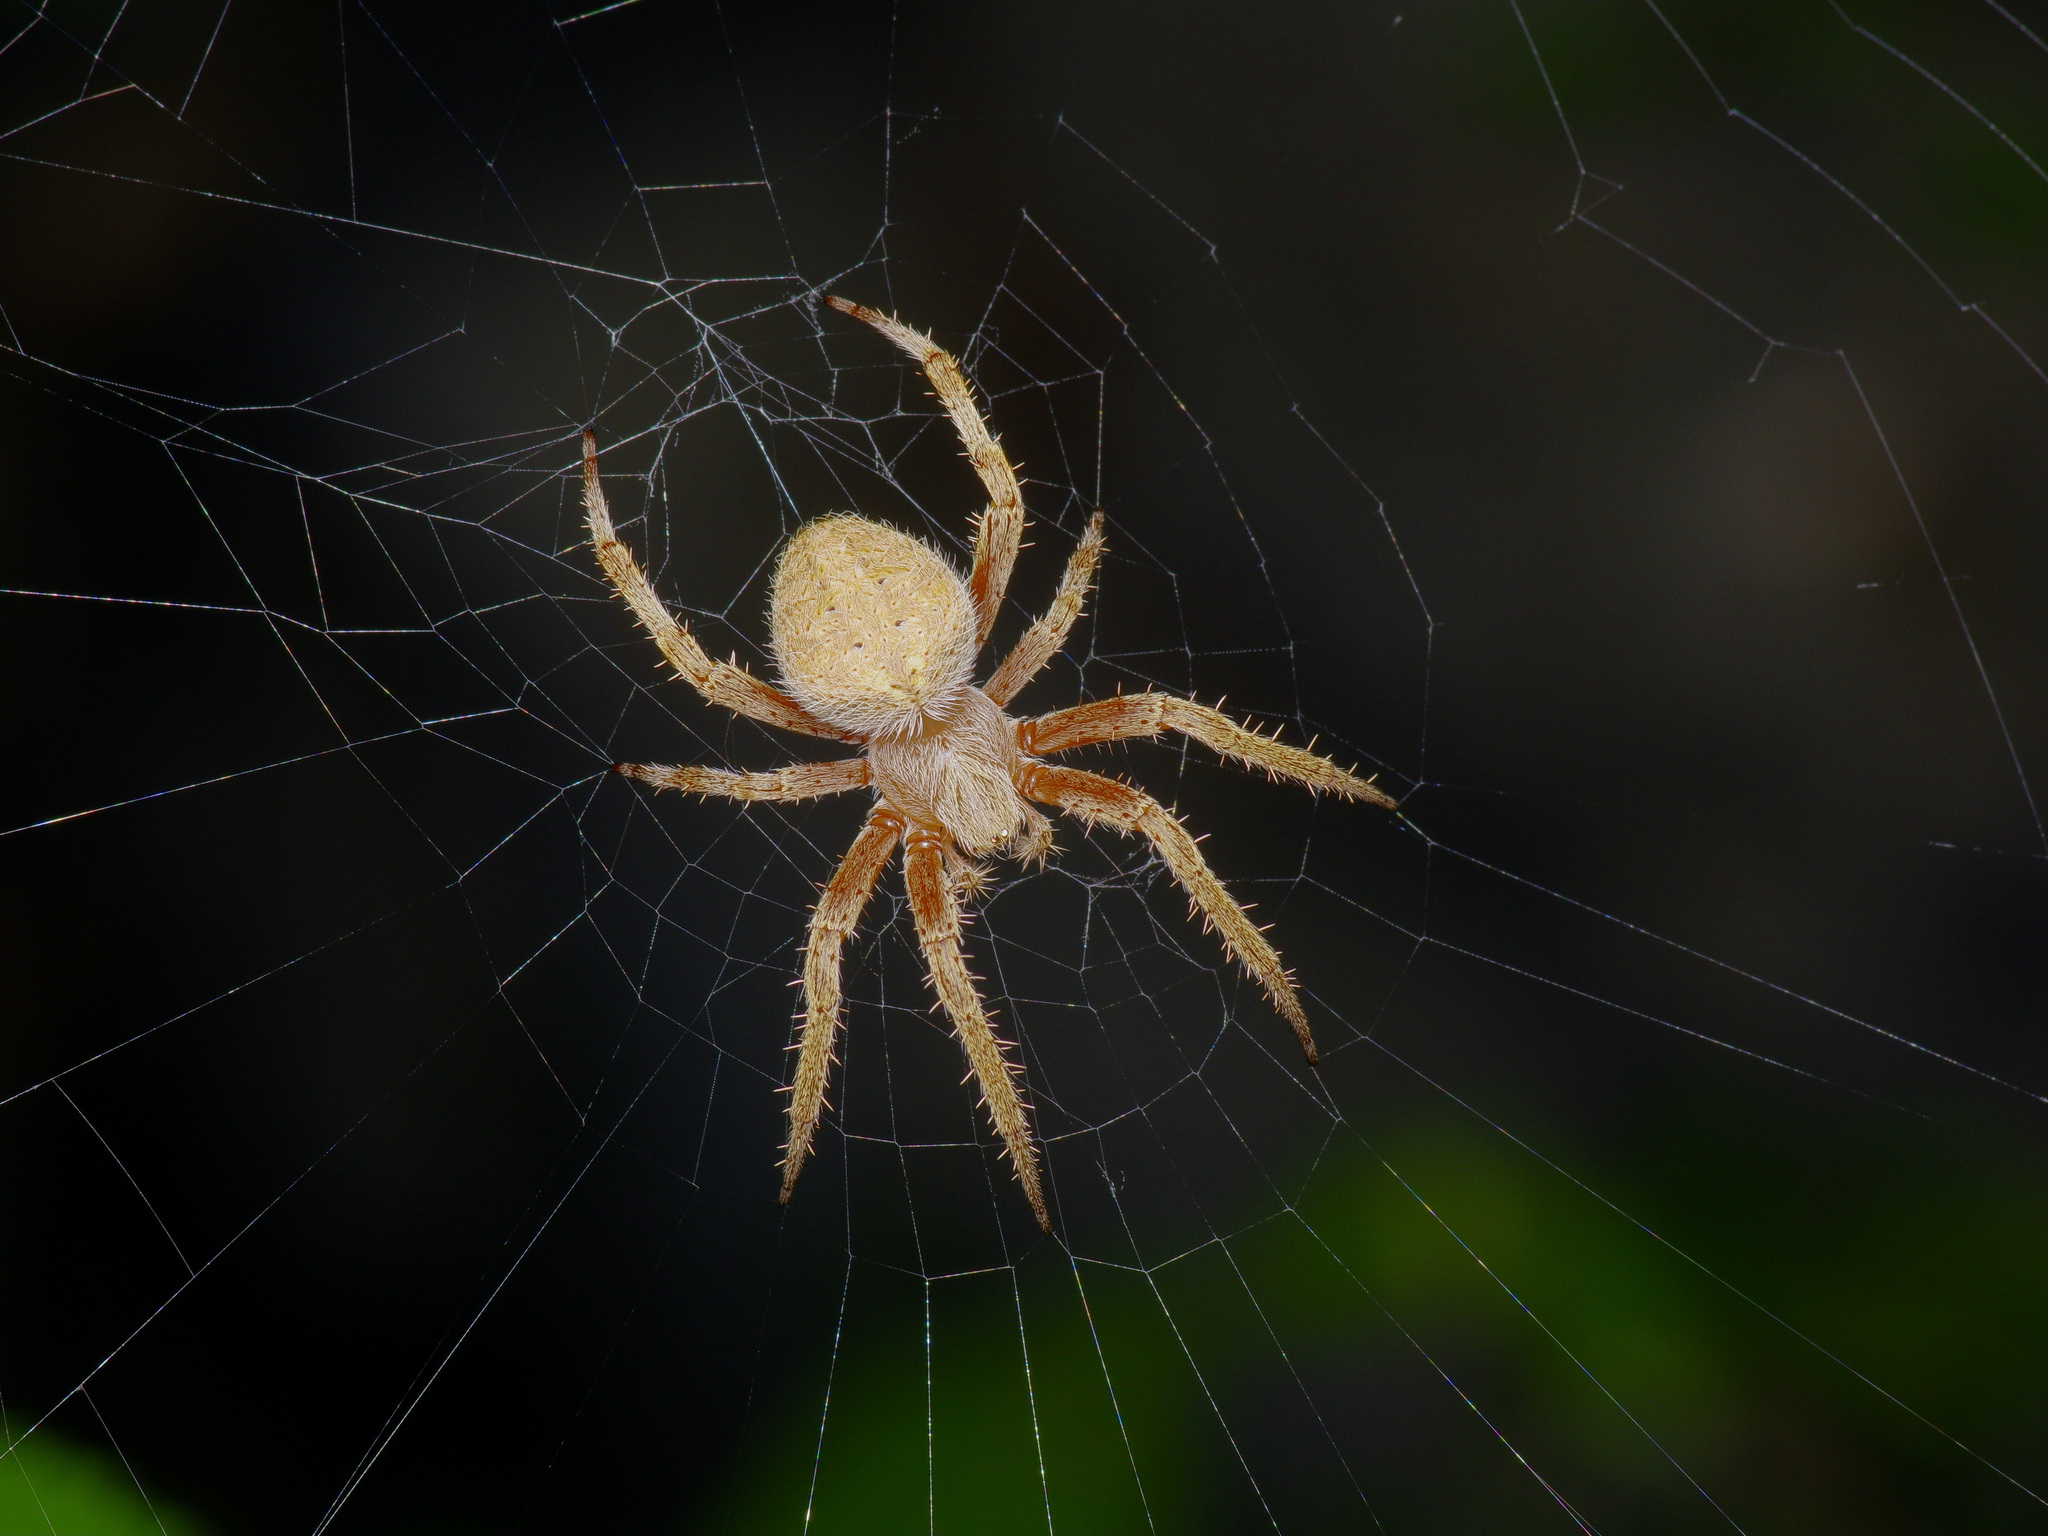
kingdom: Animalia
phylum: Arthropoda
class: Arachnida
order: Araneae
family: Araneidae
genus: Neoscona
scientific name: Neoscona crucifera
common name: Spotted orbweaver
